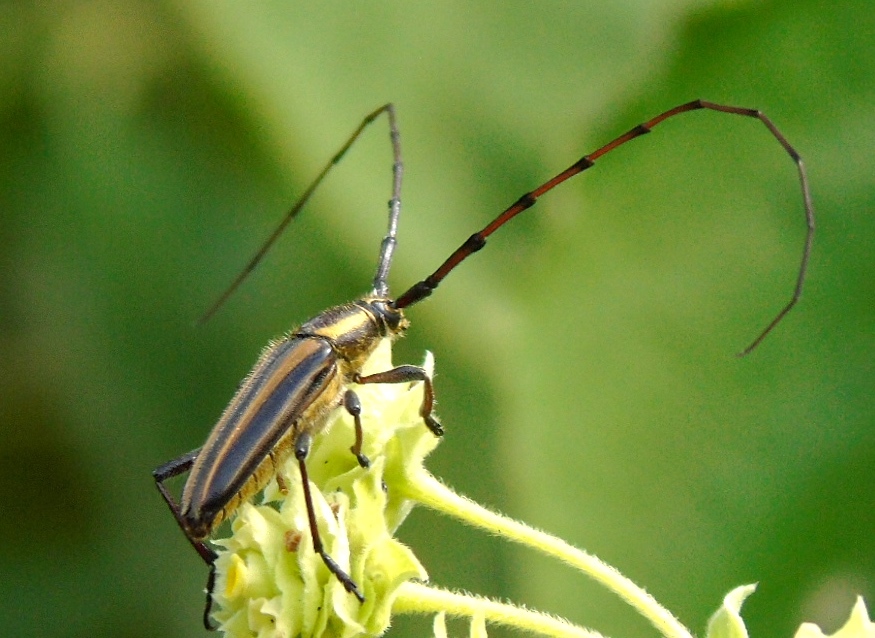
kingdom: Animalia
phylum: Arthropoda
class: Insecta
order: Coleoptera
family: Cerambycidae
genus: Sphaenothecus
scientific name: Sphaenothecus picticornis
